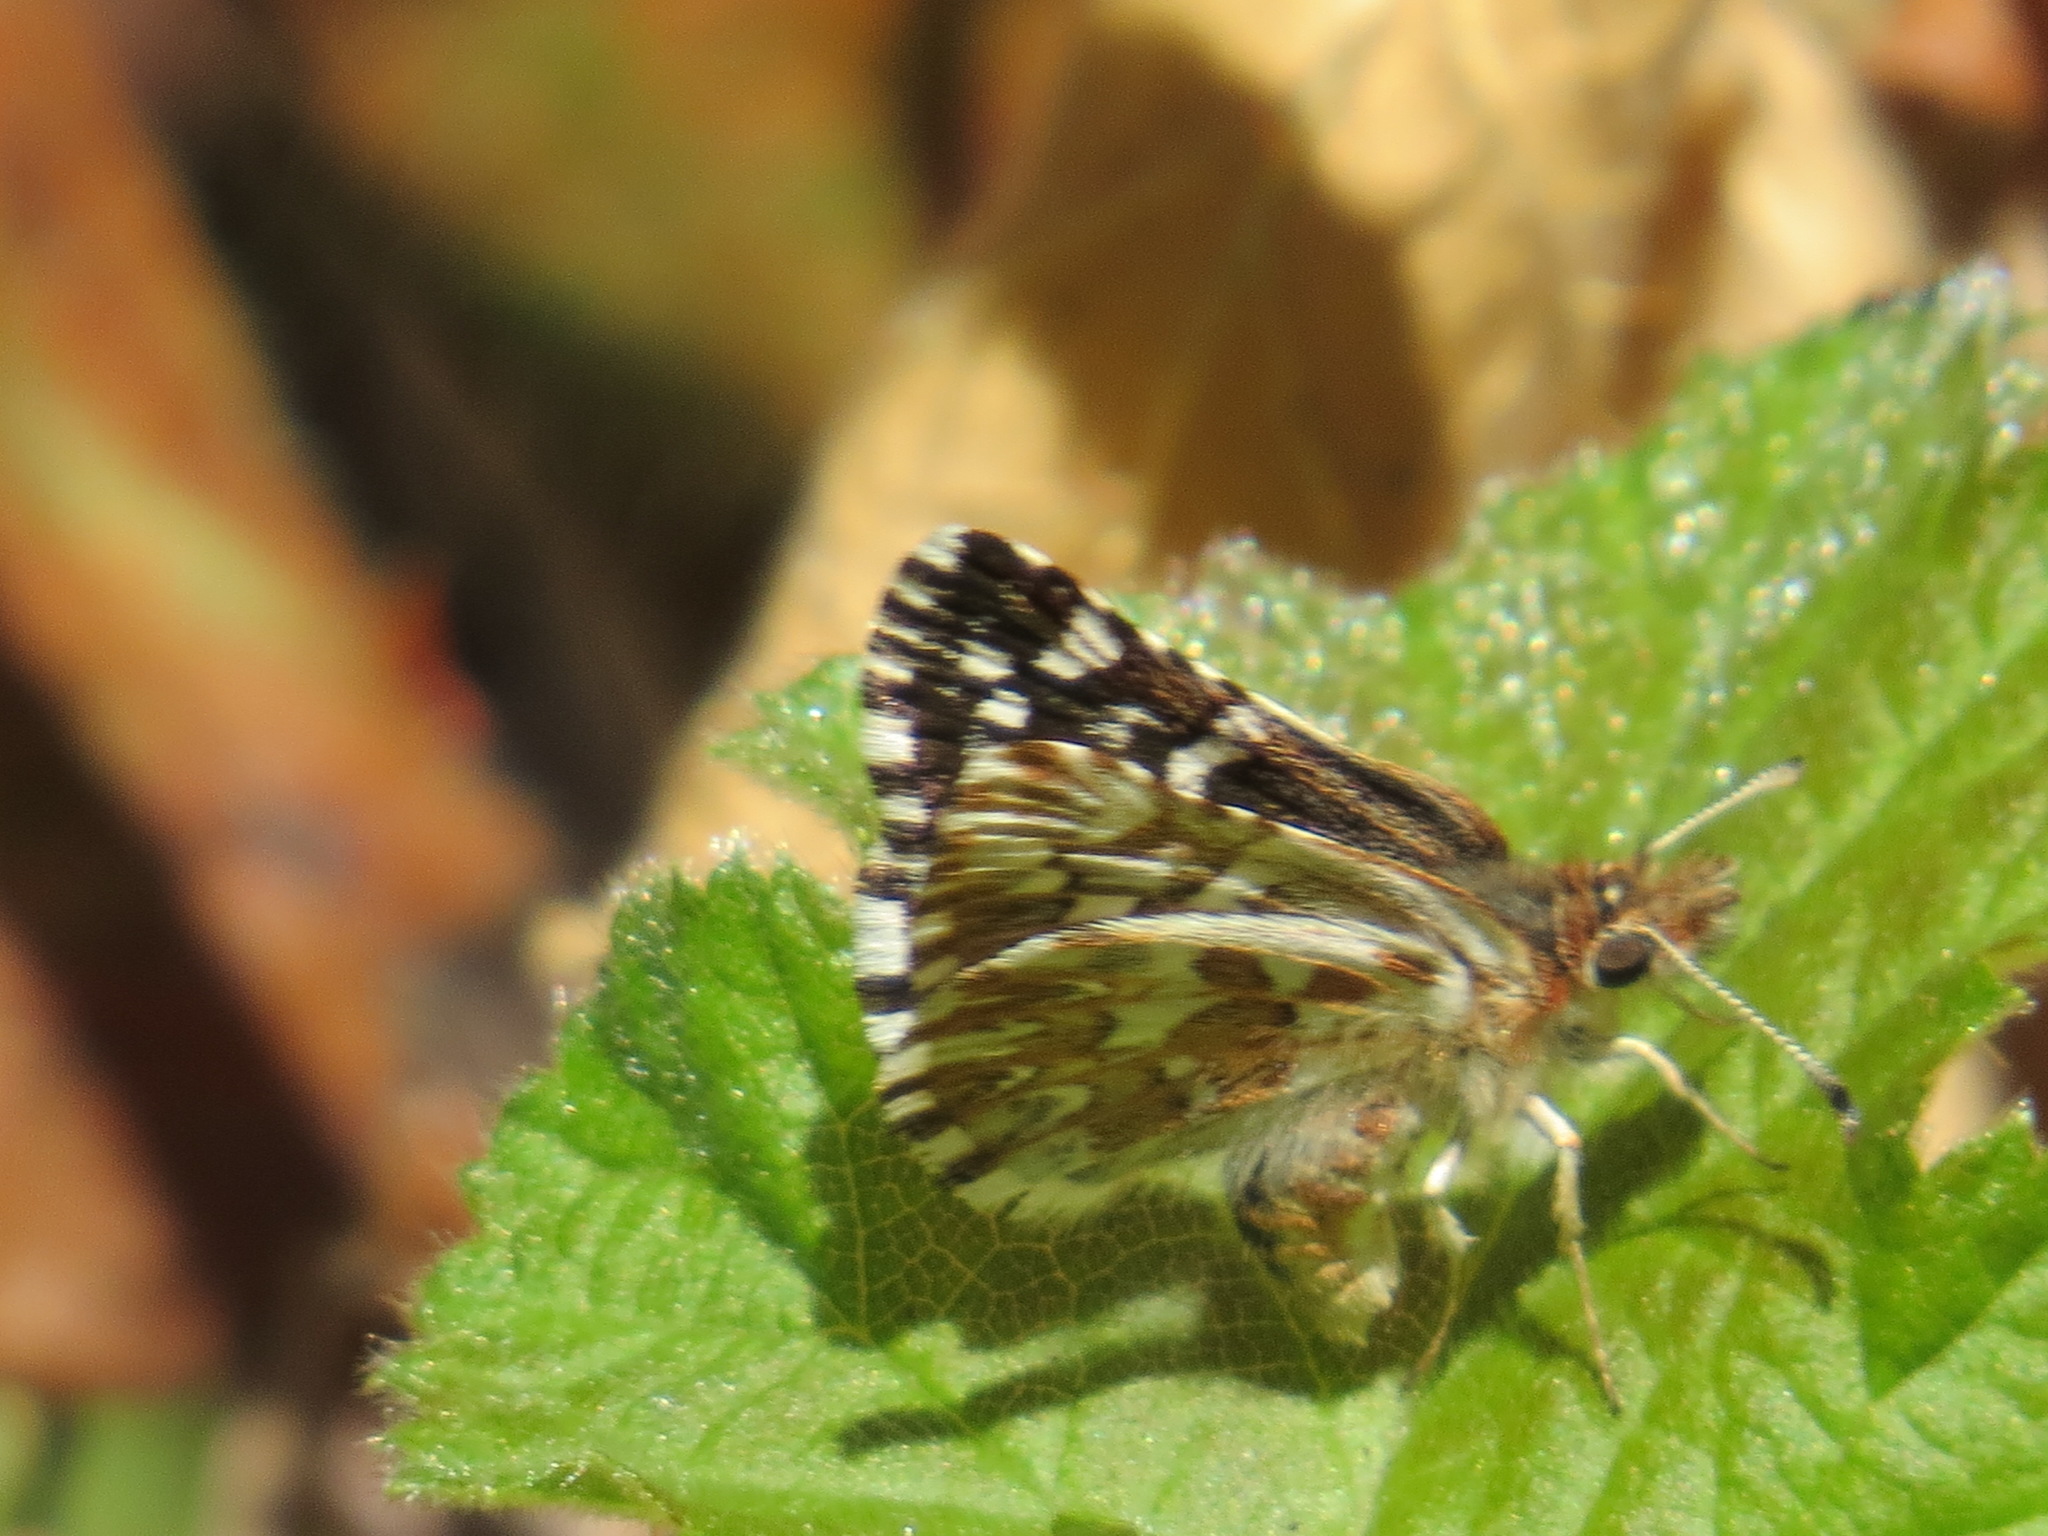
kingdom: Animalia
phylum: Arthropoda
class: Insecta
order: Lepidoptera
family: Hesperiidae
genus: Pyrgus
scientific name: Pyrgus ruralis
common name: Two-banded checkered-skipper
